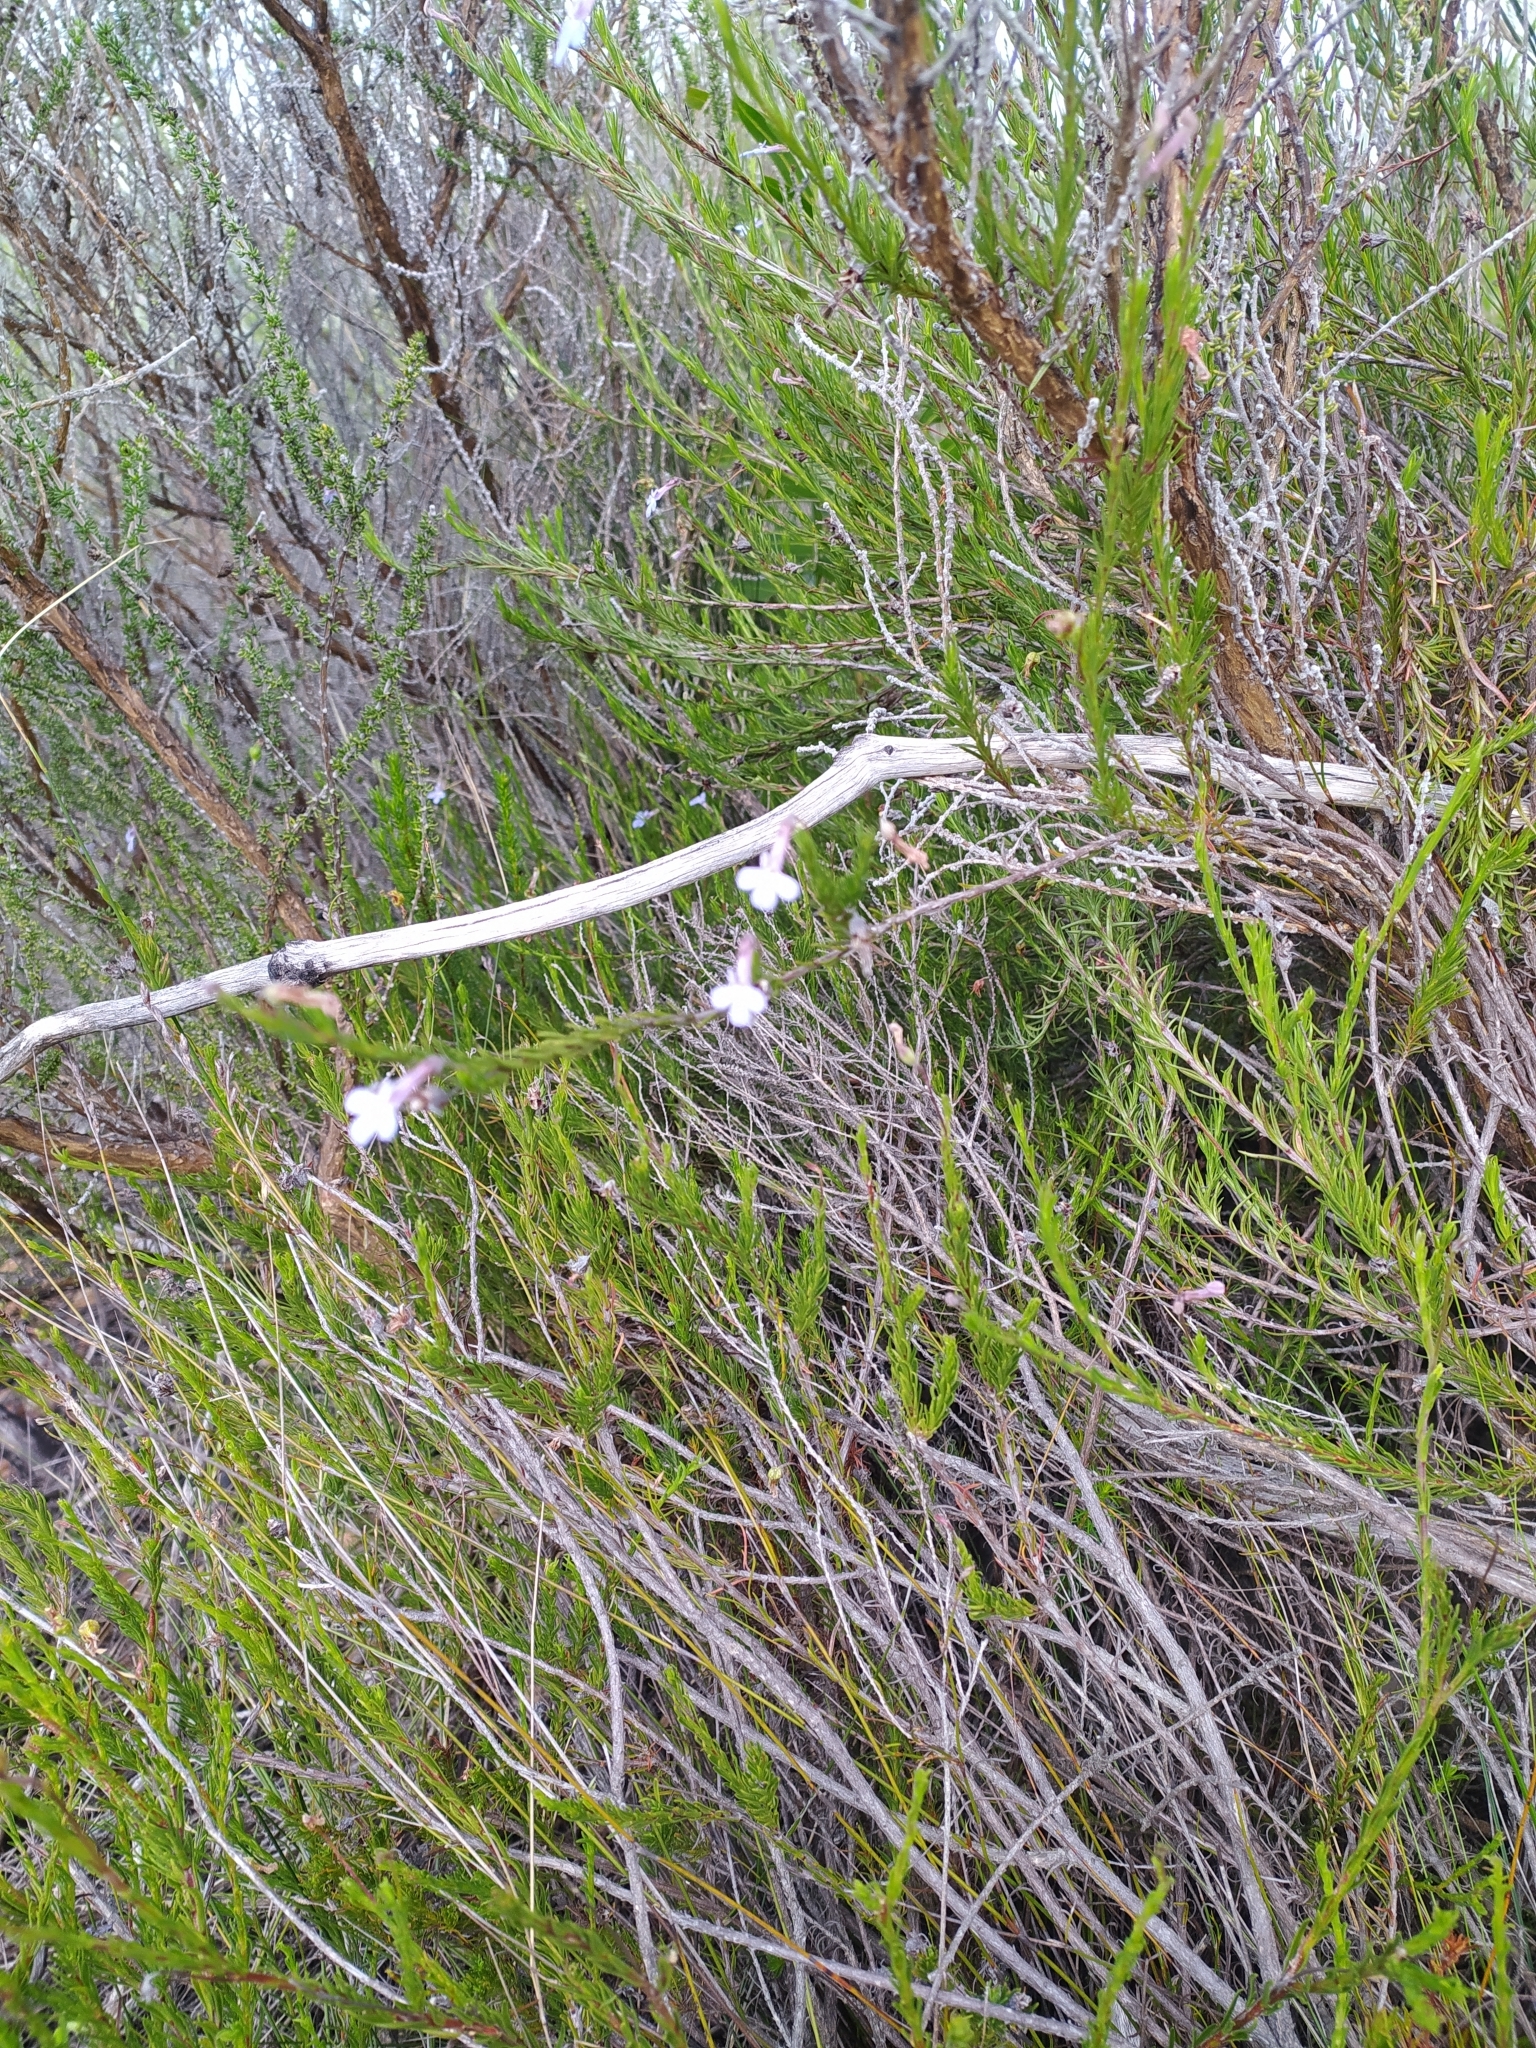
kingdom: Plantae
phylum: Tracheophyta
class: Magnoliopsida
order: Asterales
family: Campanulaceae
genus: Lobelia
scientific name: Lobelia pinifolia
